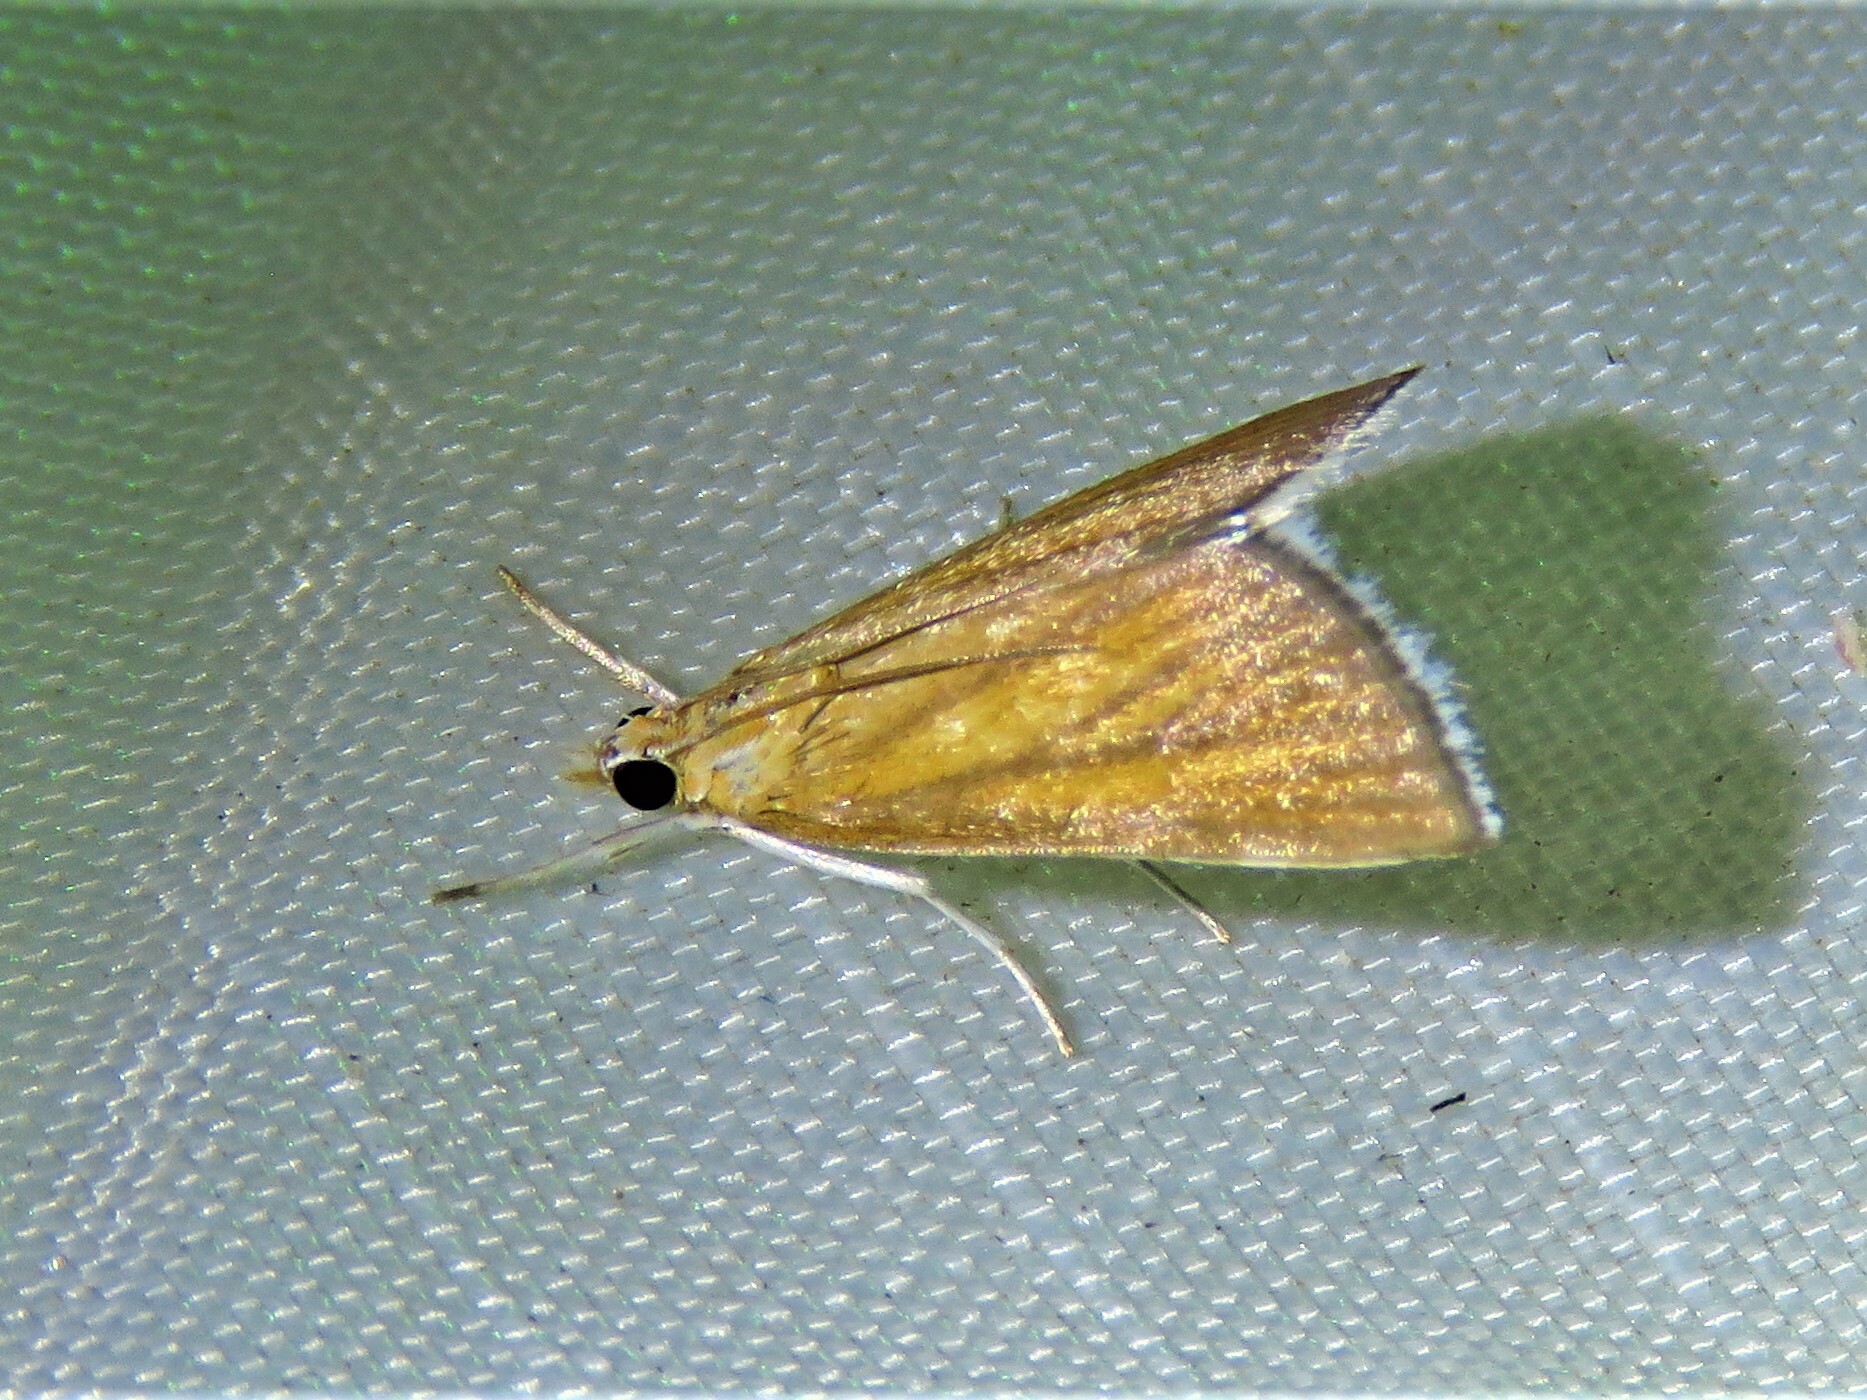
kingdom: Animalia
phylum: Arthropoda
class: Insecta
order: Lepidoptera
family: Crambidae
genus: Nascia
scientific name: Nascia acutellus
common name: Streaked orange moth
